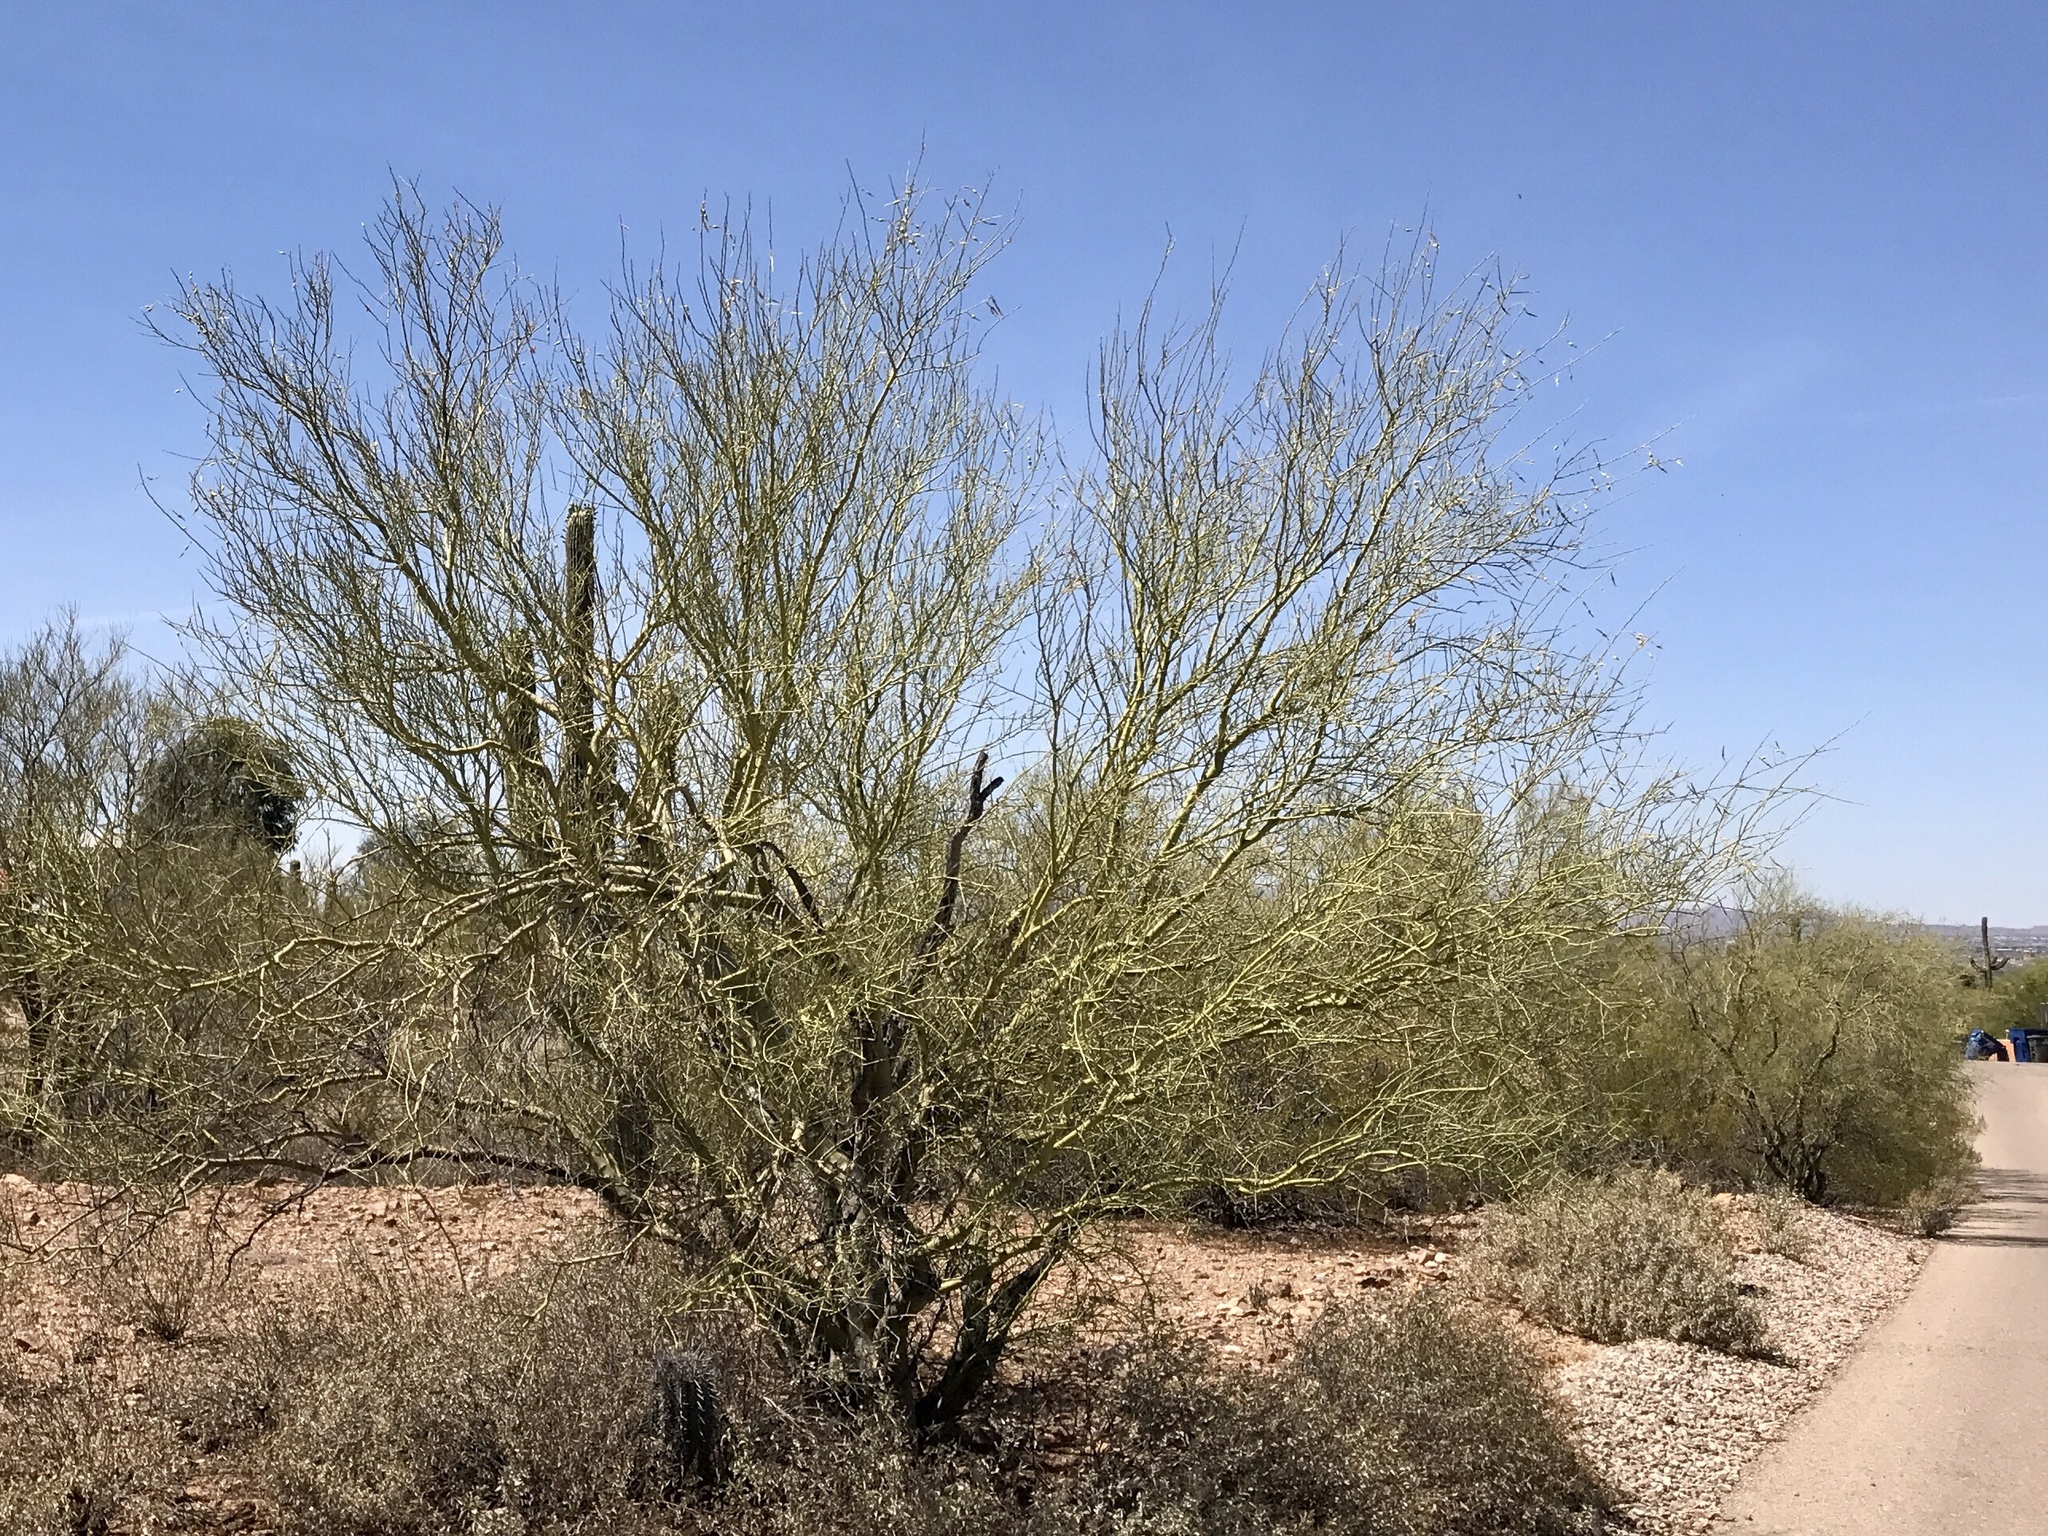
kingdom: Plantae
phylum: Tracheophyta
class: Magnoliopsida
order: Fabales
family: Fabaceae
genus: Parkinsonia
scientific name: Parkinsonia microphylla
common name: Yellow paloverde
